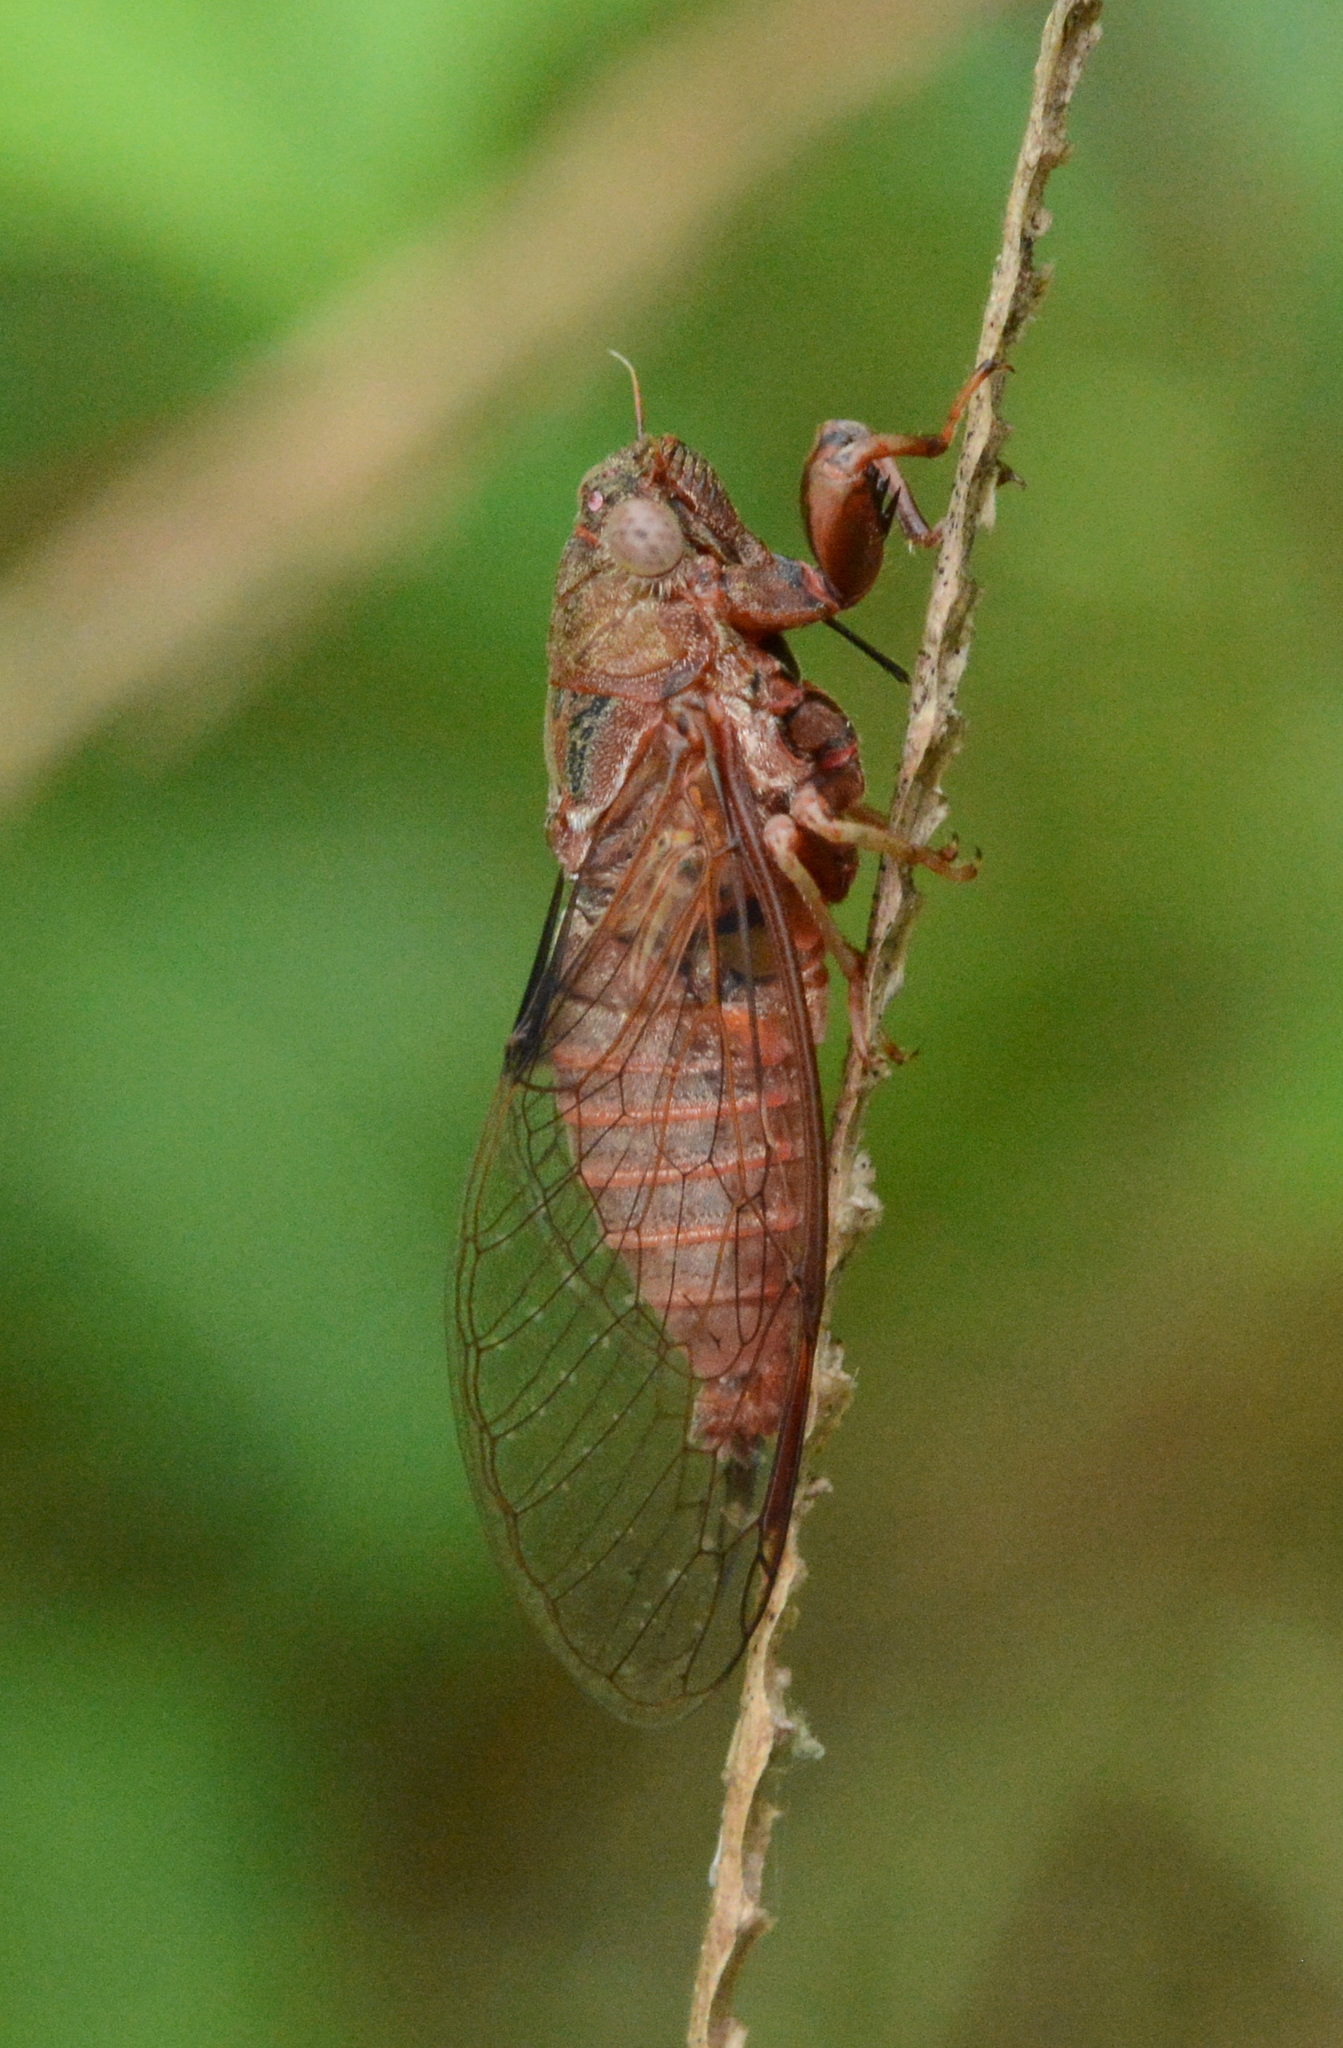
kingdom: Animalia
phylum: Arthropoda
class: Insecta
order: Hemiptera
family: Cicadidae
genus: Cicadettana
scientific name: Cicadettana calliope
